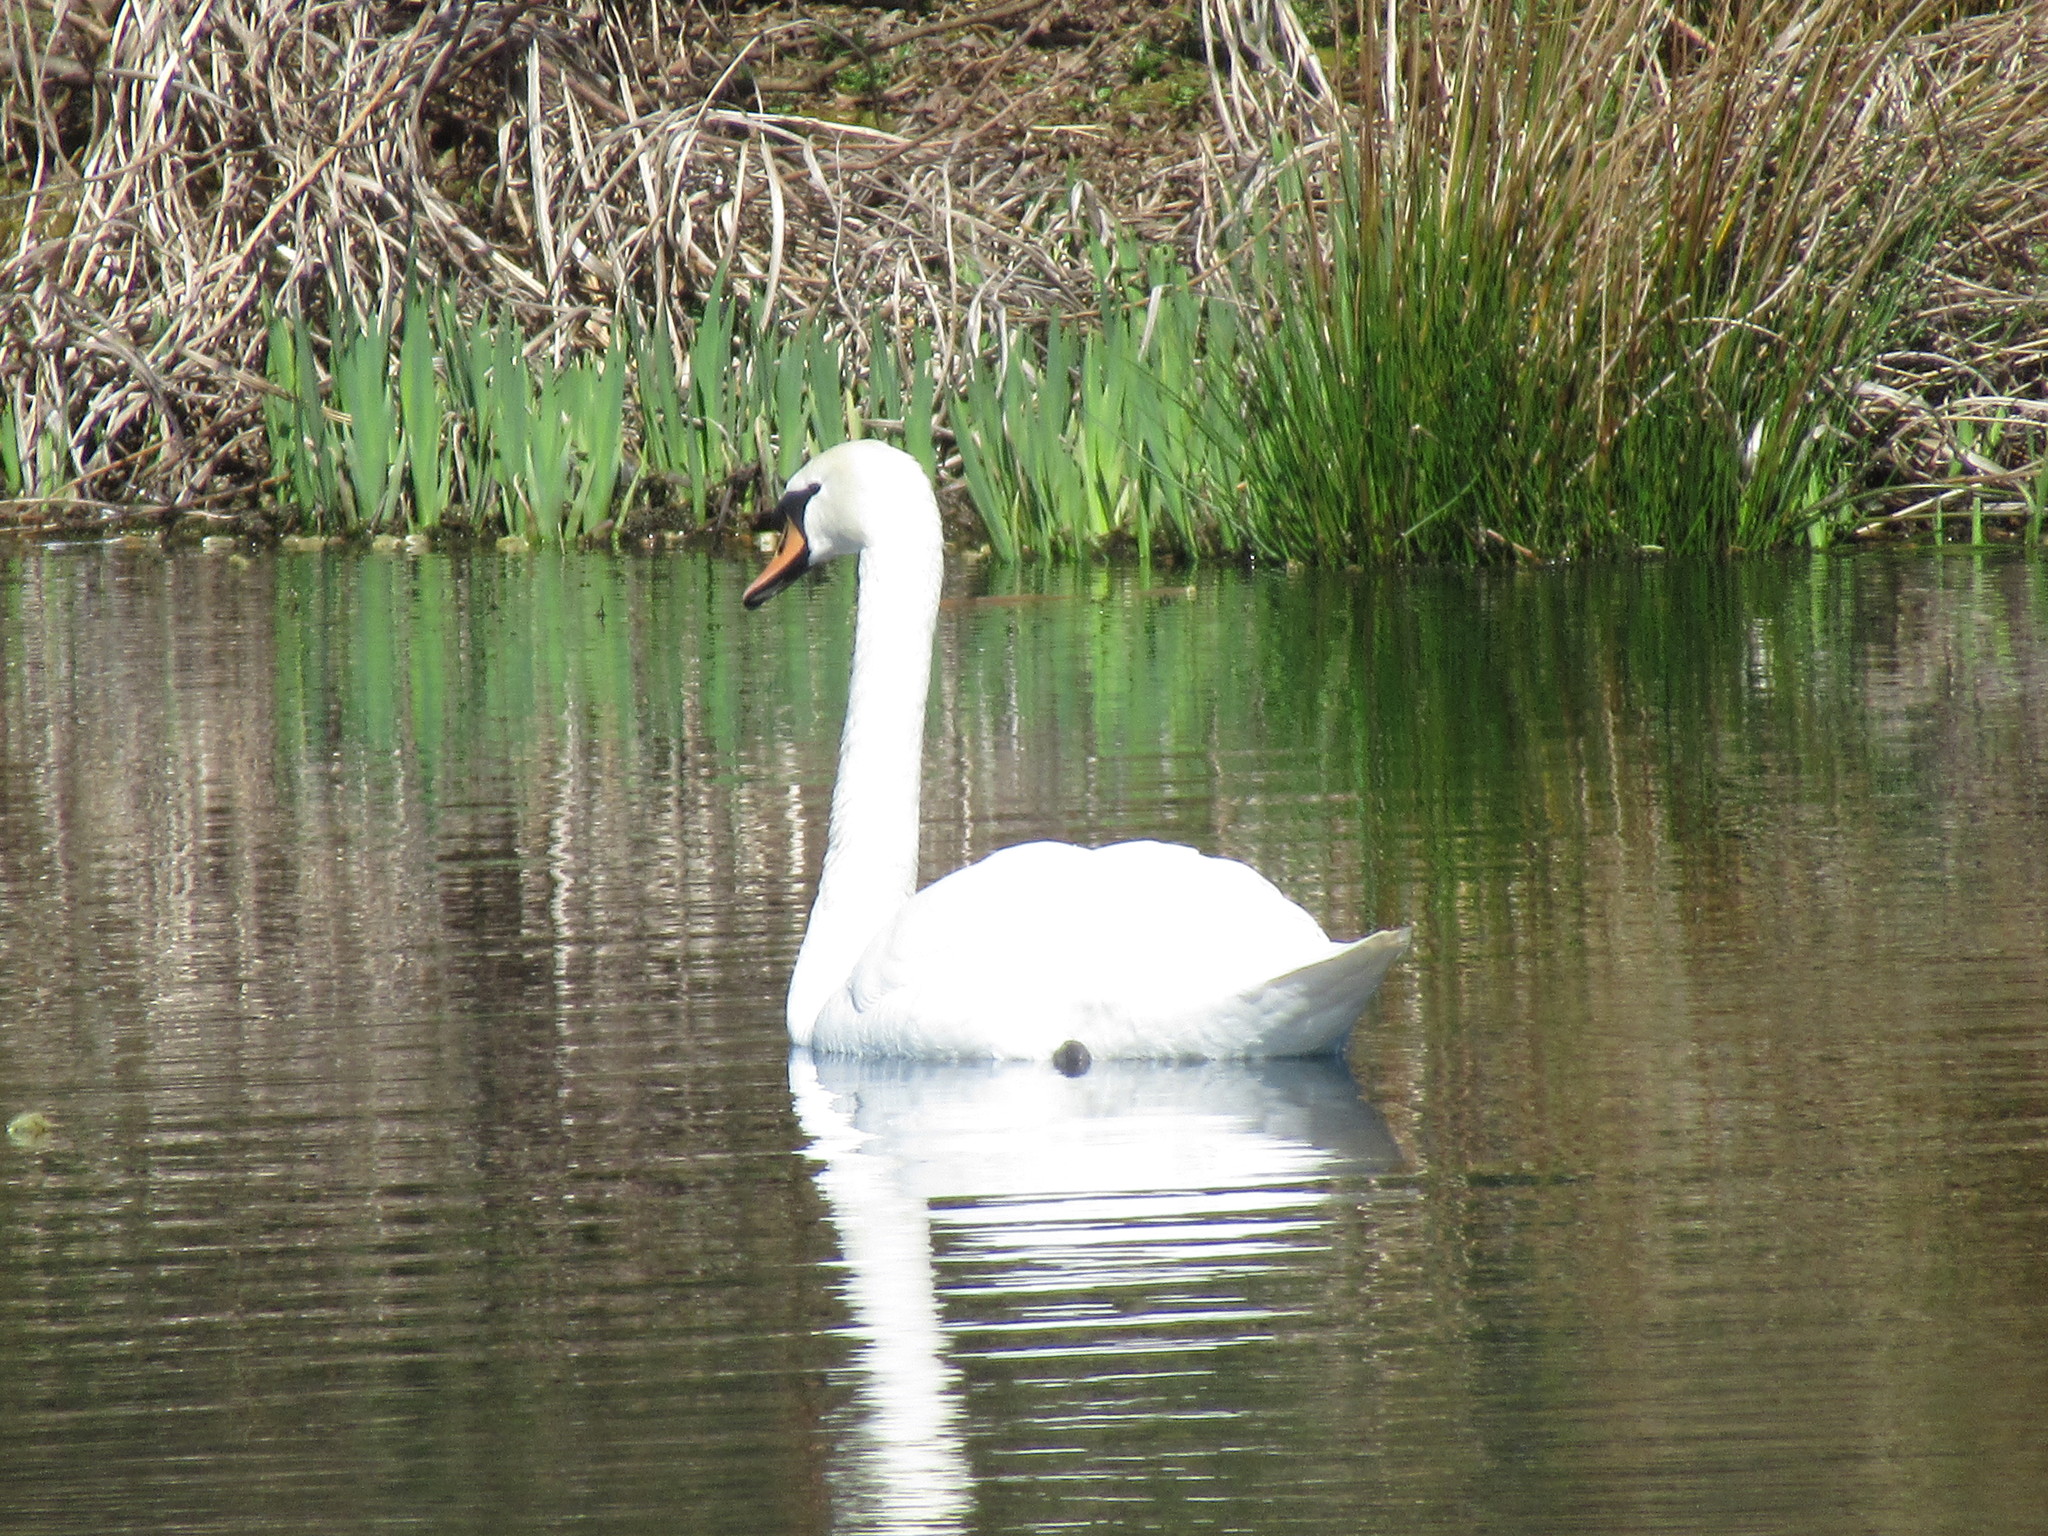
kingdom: Animalia
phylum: Chordata
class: Aves
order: Anseriformes
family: Anatidae
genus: Cygnus
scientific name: Cygnus olor
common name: Mute swan
